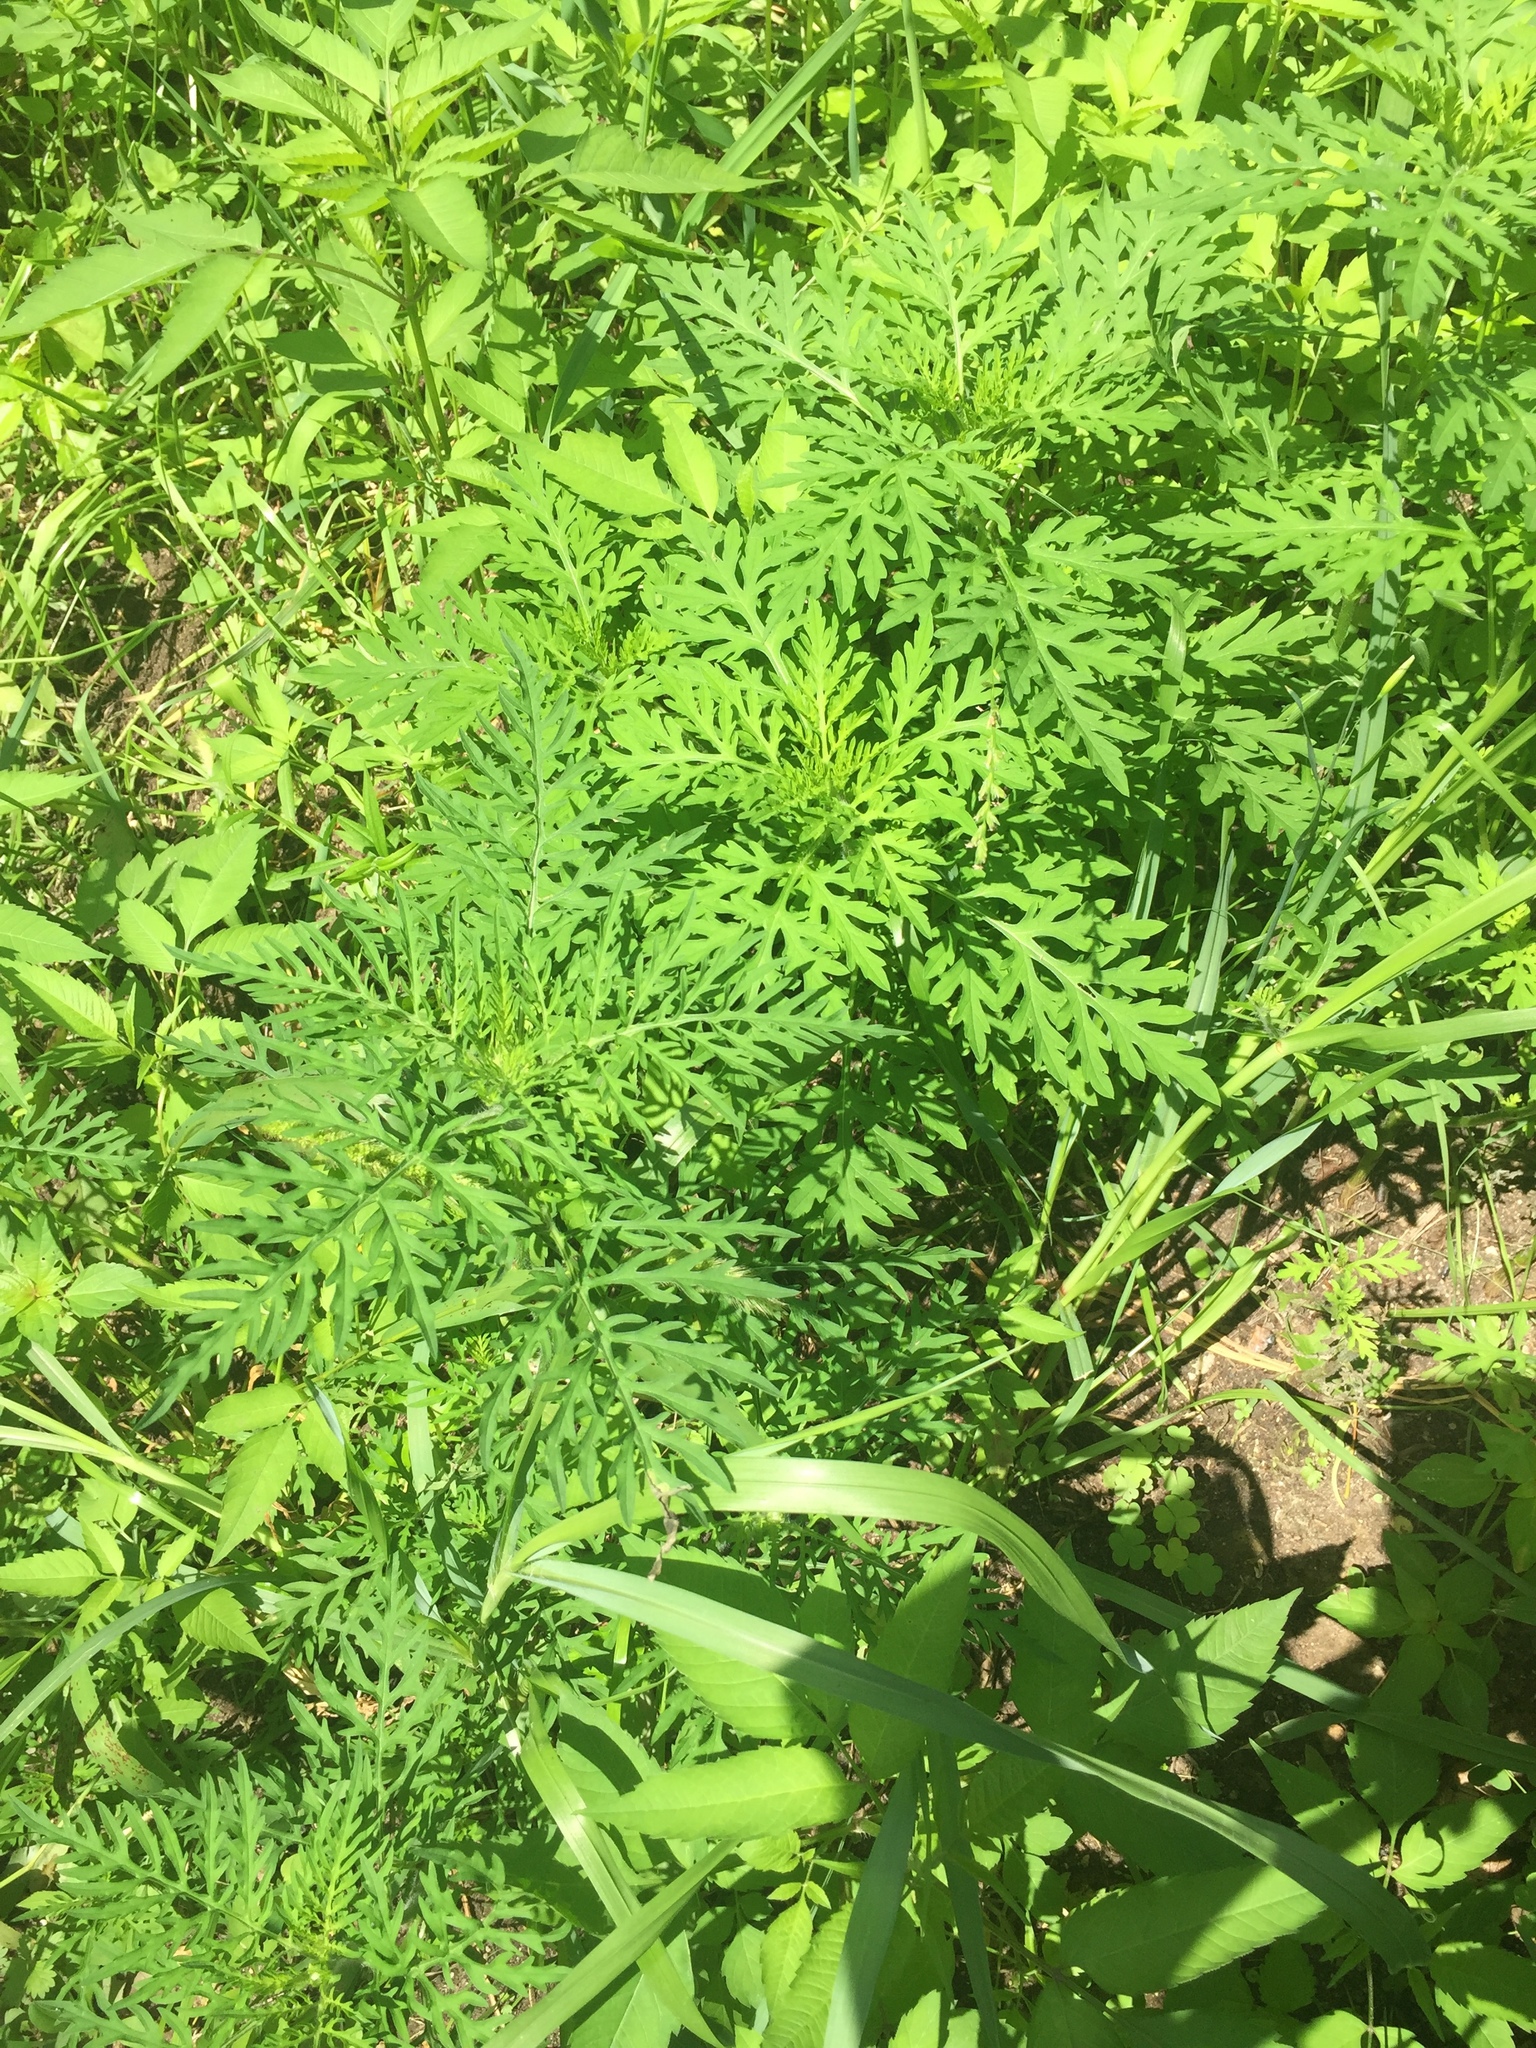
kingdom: Plantae
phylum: Tracheophyta
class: Magnoliopsida
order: Asterales
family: Asteraceae
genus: Ambrosia
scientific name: Ambrosia artemisiifolia
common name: Annual ragweed
